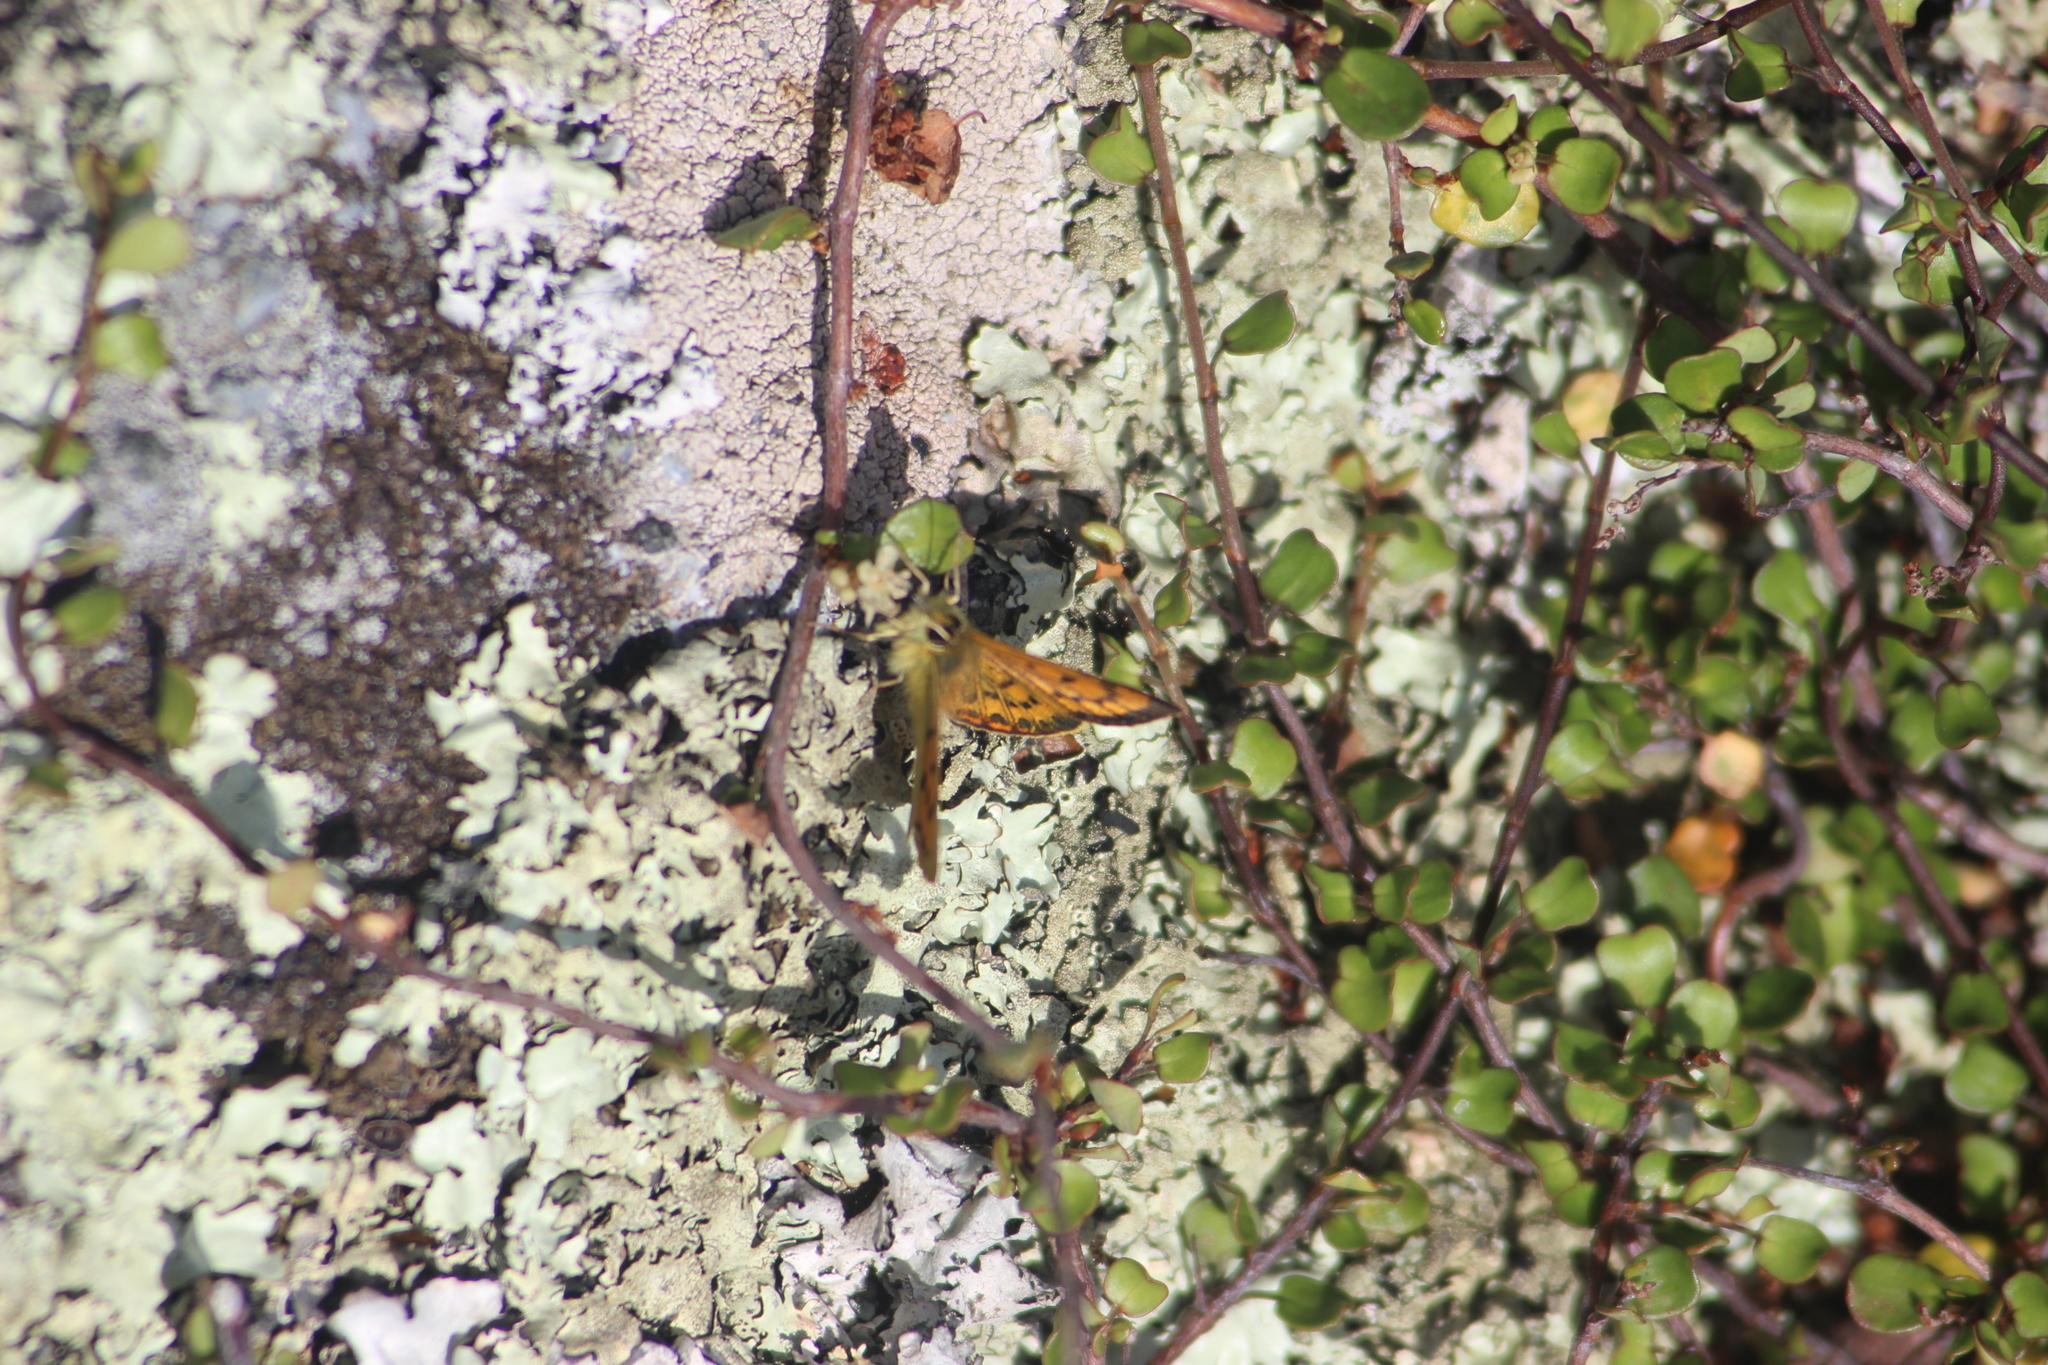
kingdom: Plantae
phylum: Tracheophyta
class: Magnoliopsida
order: Caryophyllales
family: Polygonaceae
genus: Muehlenbeckia
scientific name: Muehlenbeckia complexa
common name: Wireplant
